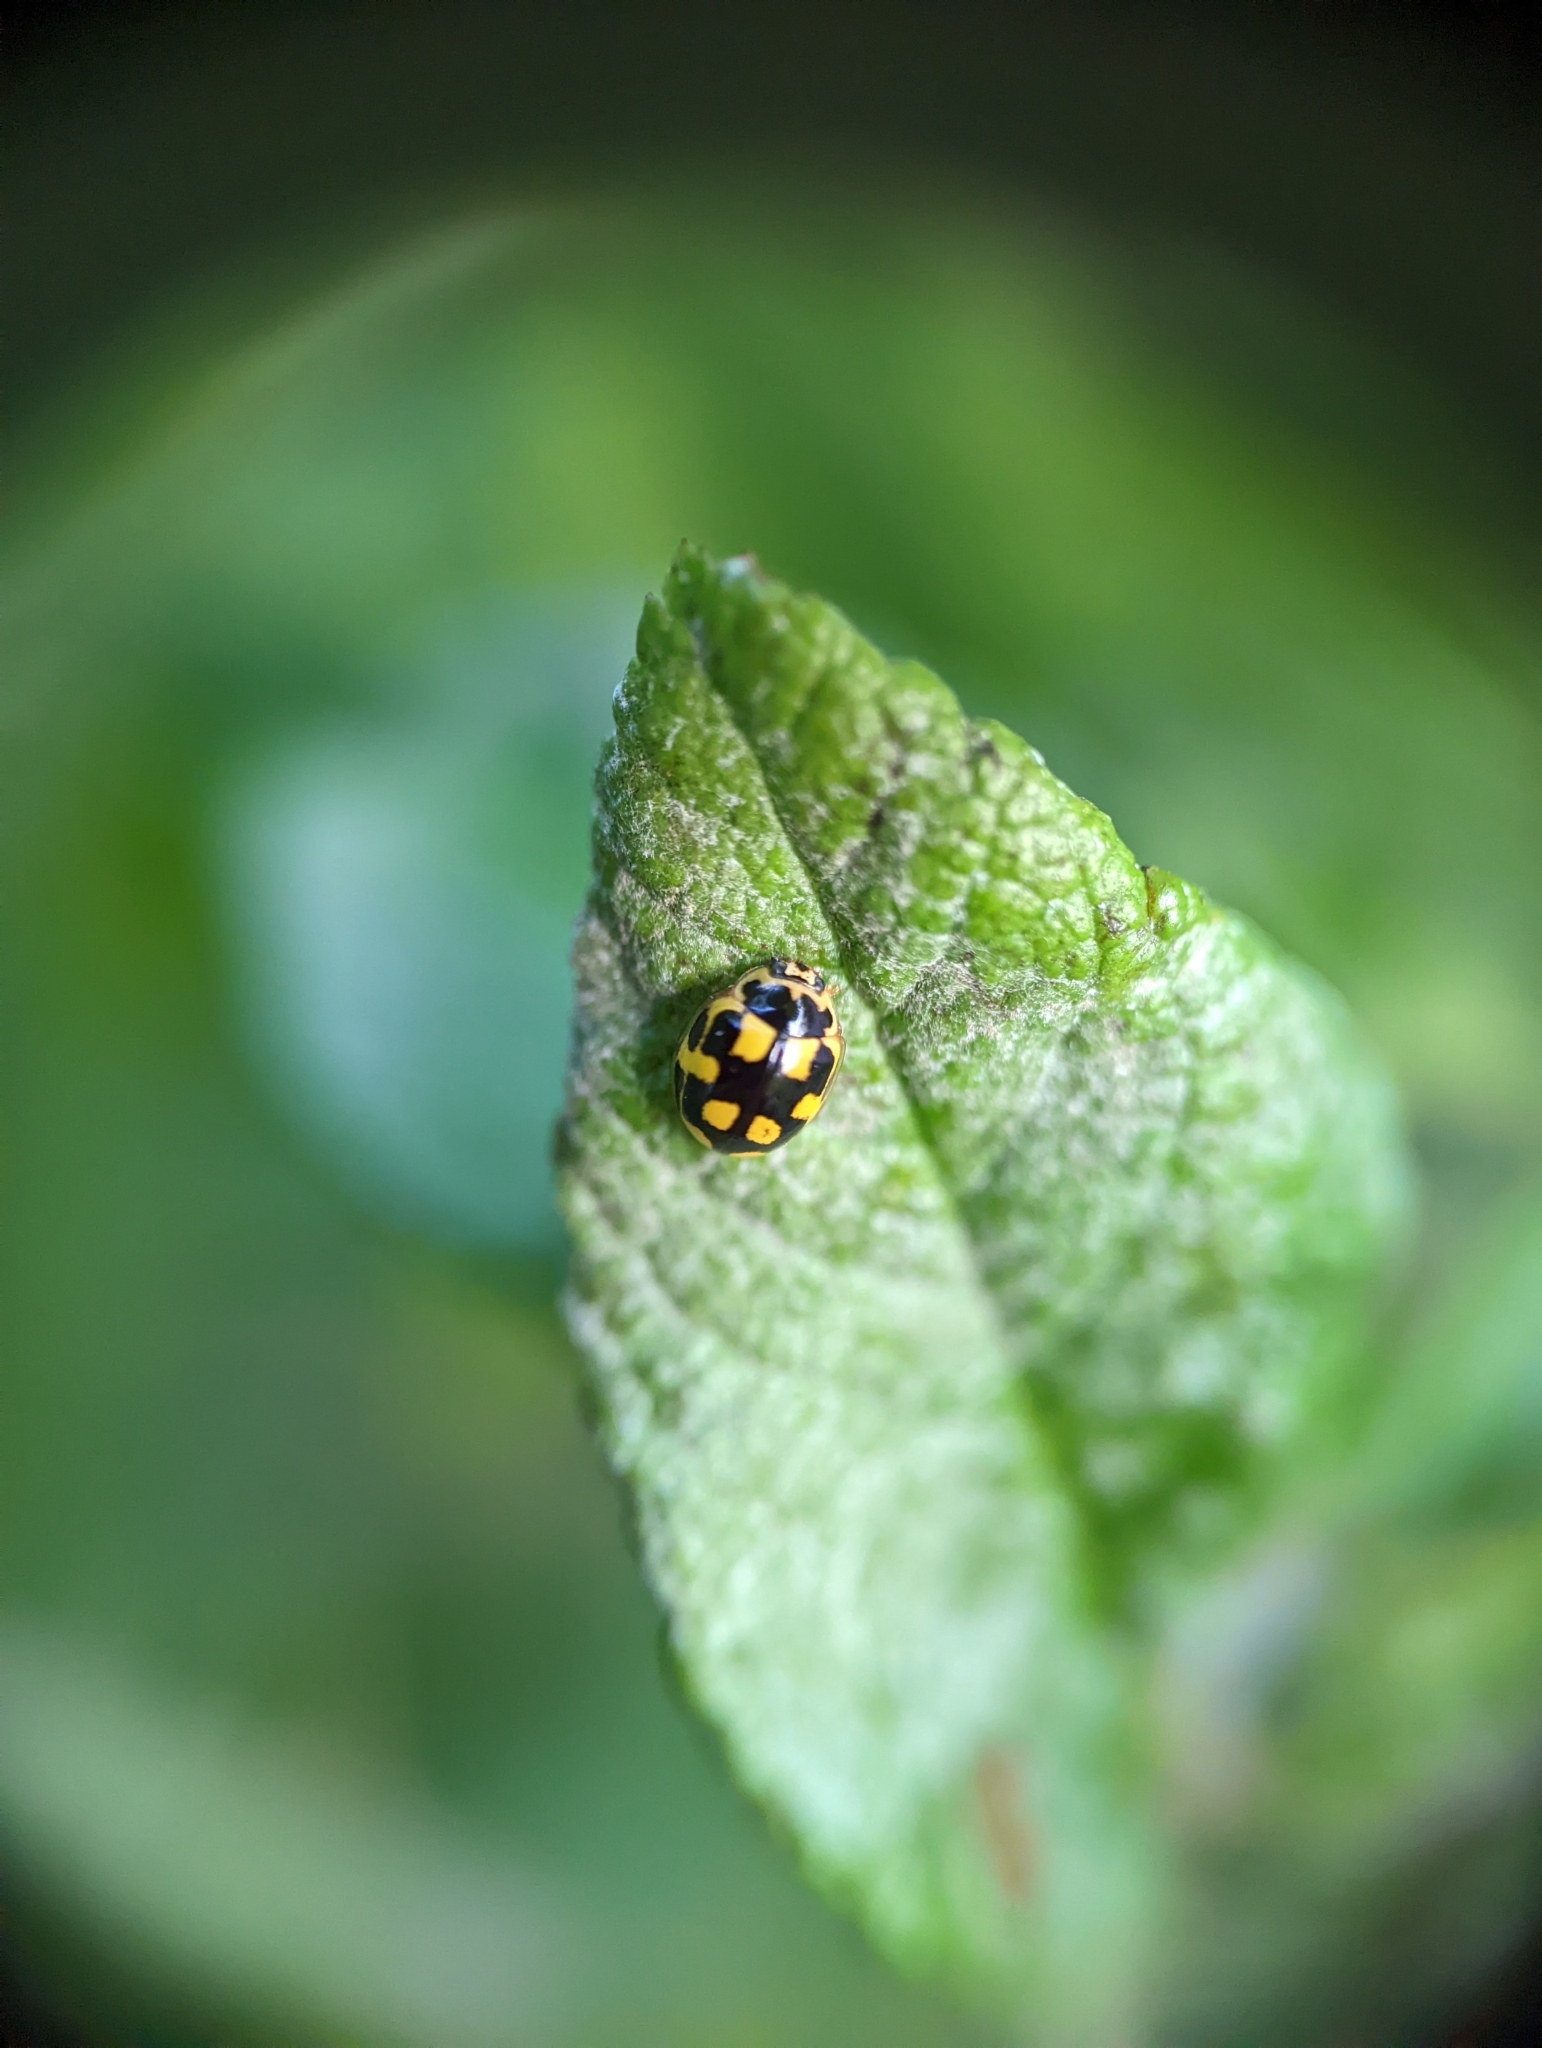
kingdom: Animalia
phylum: Arthropoda
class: Insecta
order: Coleoptera
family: Coccinellidae
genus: Propylaea
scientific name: Propylaea quatuordecimpunctata
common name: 14-spotted ladybird beetle
